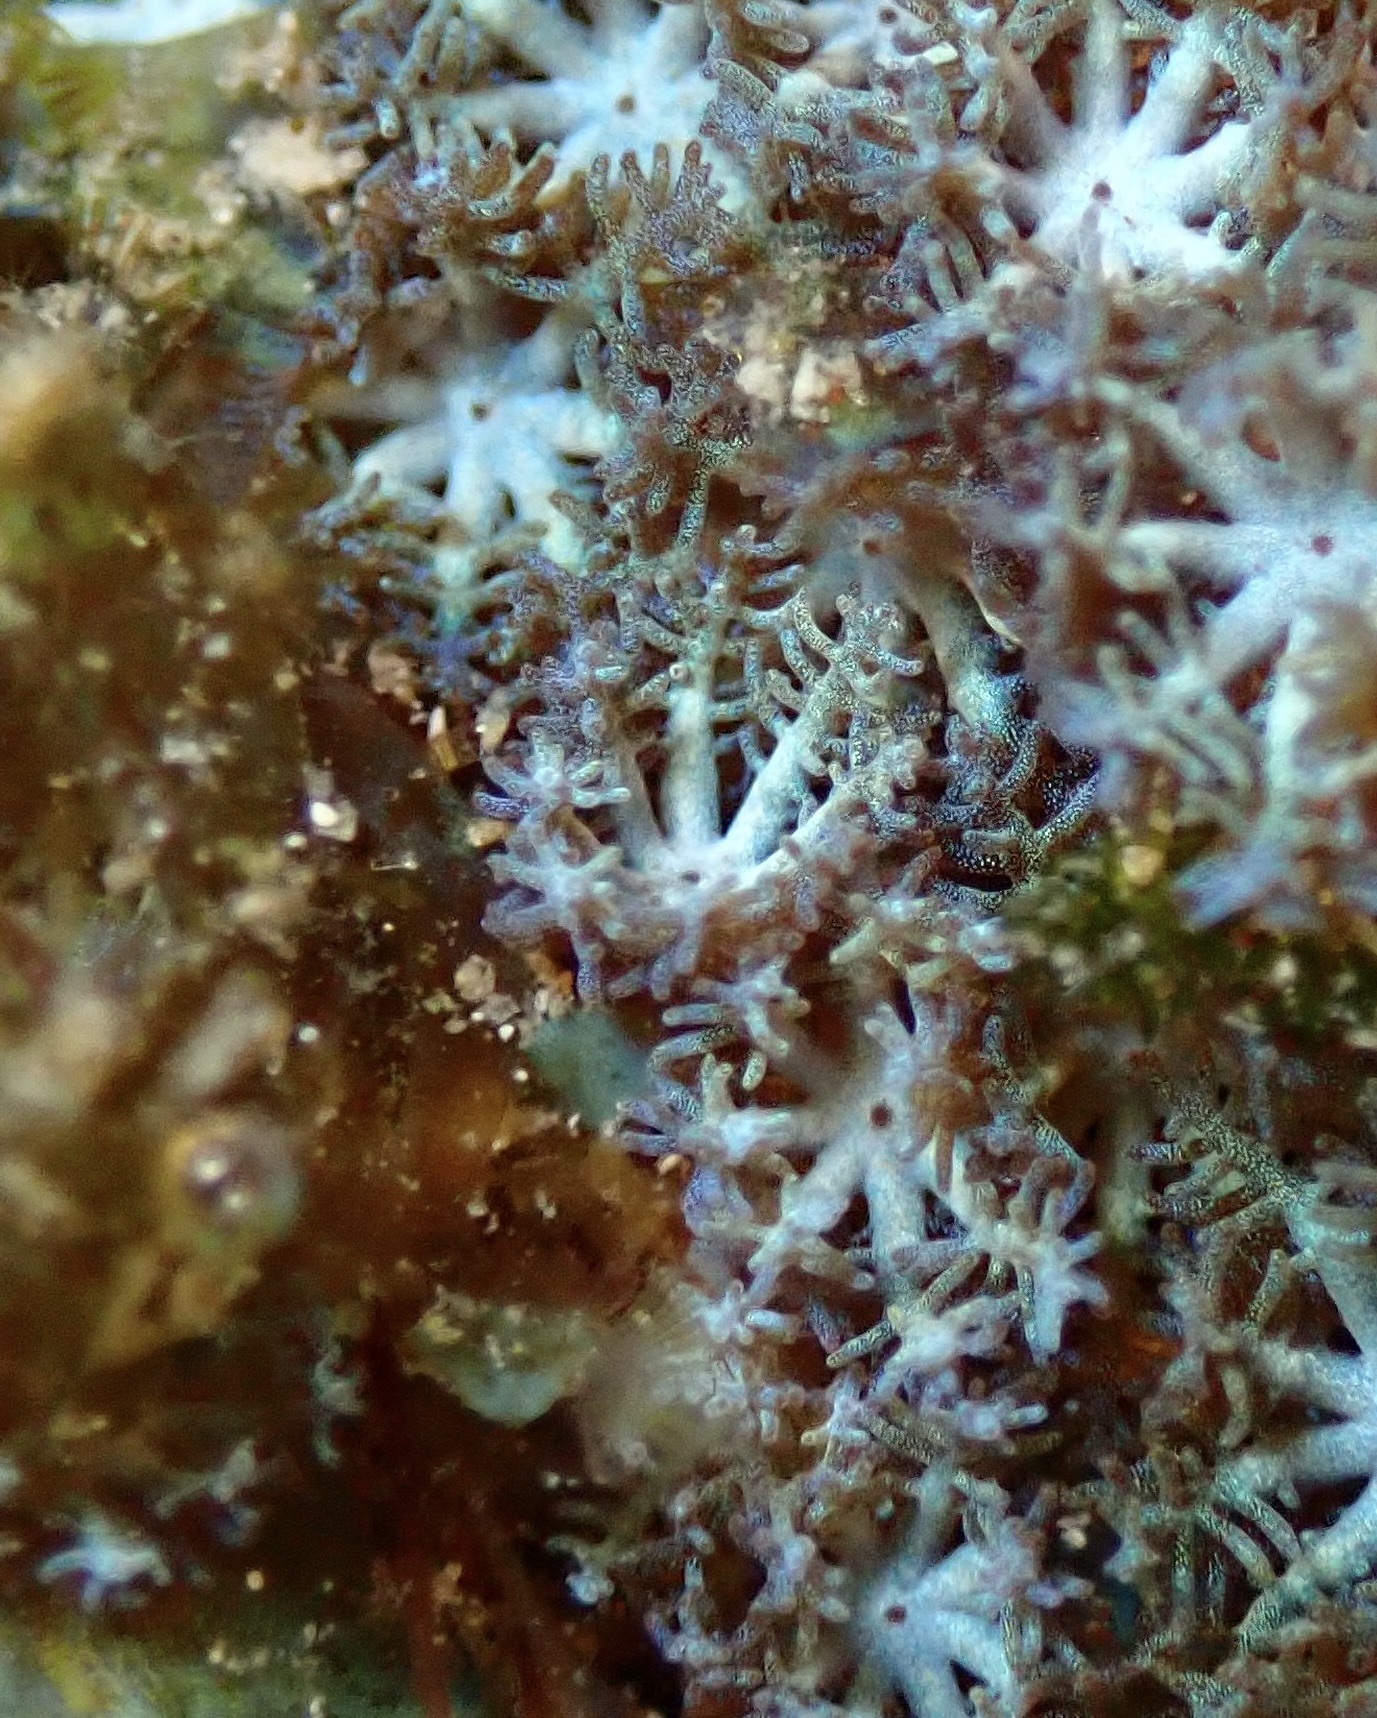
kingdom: Animalia
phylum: Cnidaria
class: Anthozoa
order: Malacalcyonacea
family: Xeniidae
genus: Sarcothelia
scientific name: Sarcothelia edmondsoni
